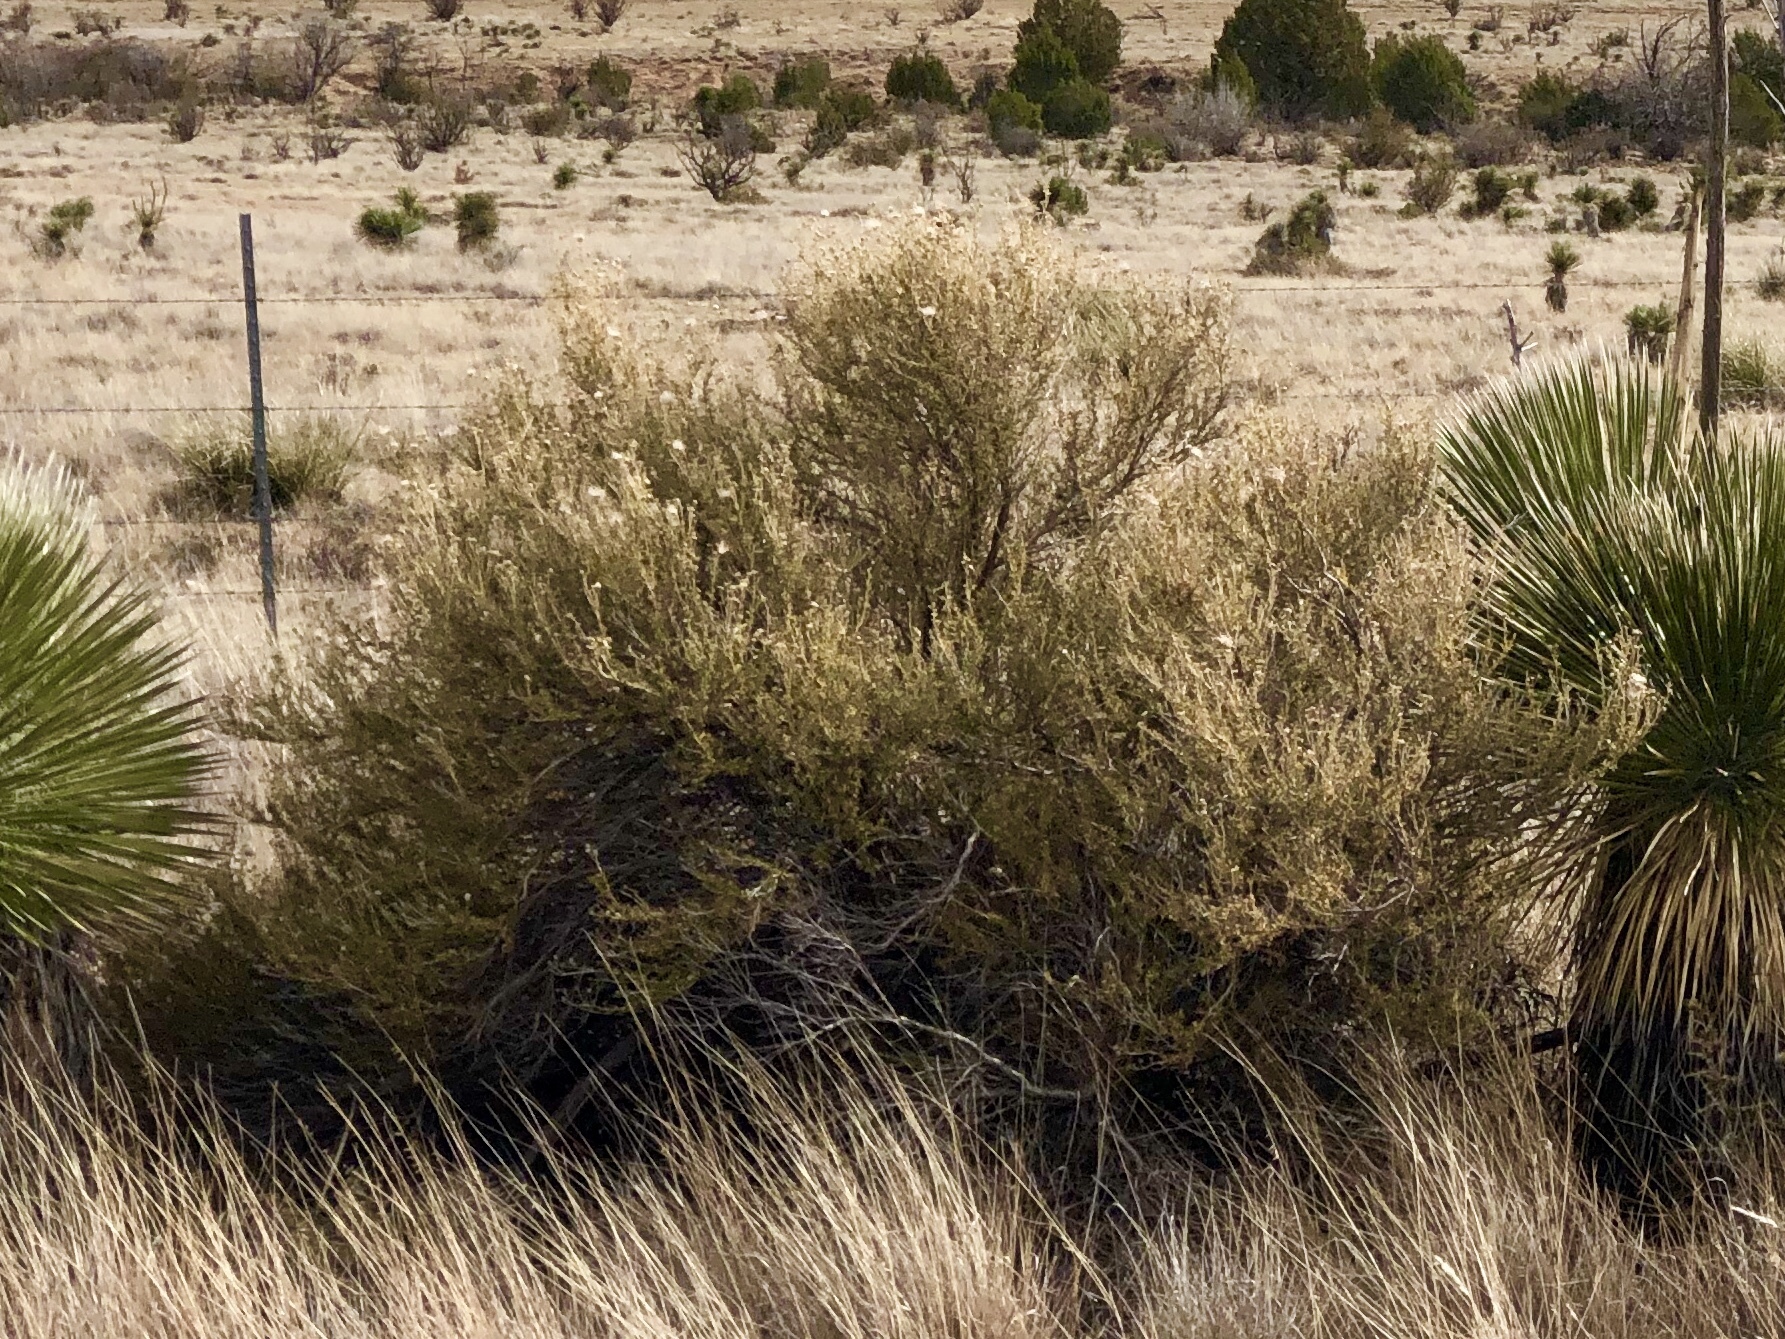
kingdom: Plantae
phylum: Tracheophyta
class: Magnoliopsida
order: Rosales
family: Rosaceae
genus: Fallugia
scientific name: Fallugia paradoxa
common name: Apache-plume
